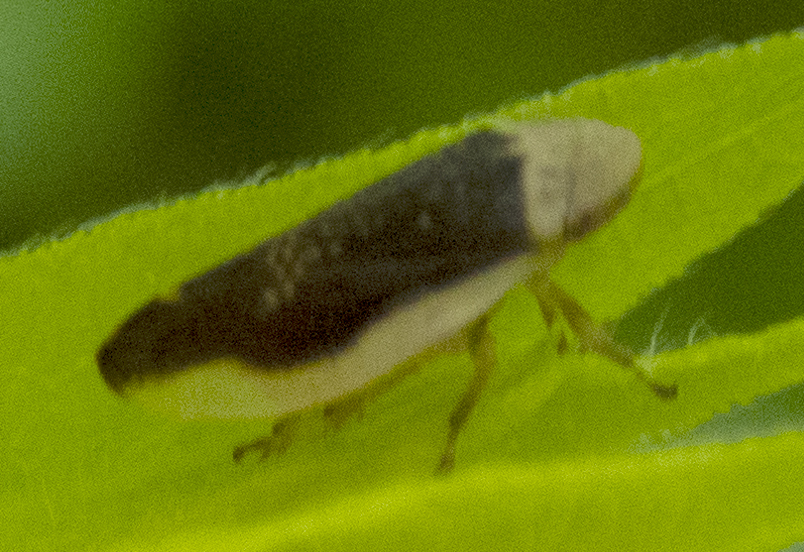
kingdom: Animalia
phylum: Arthropoda
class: Insecta
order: Hemiptera
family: Aphrophoridae
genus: Philaenus
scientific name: Philaenus spumarius
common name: Meadow spittlebug
